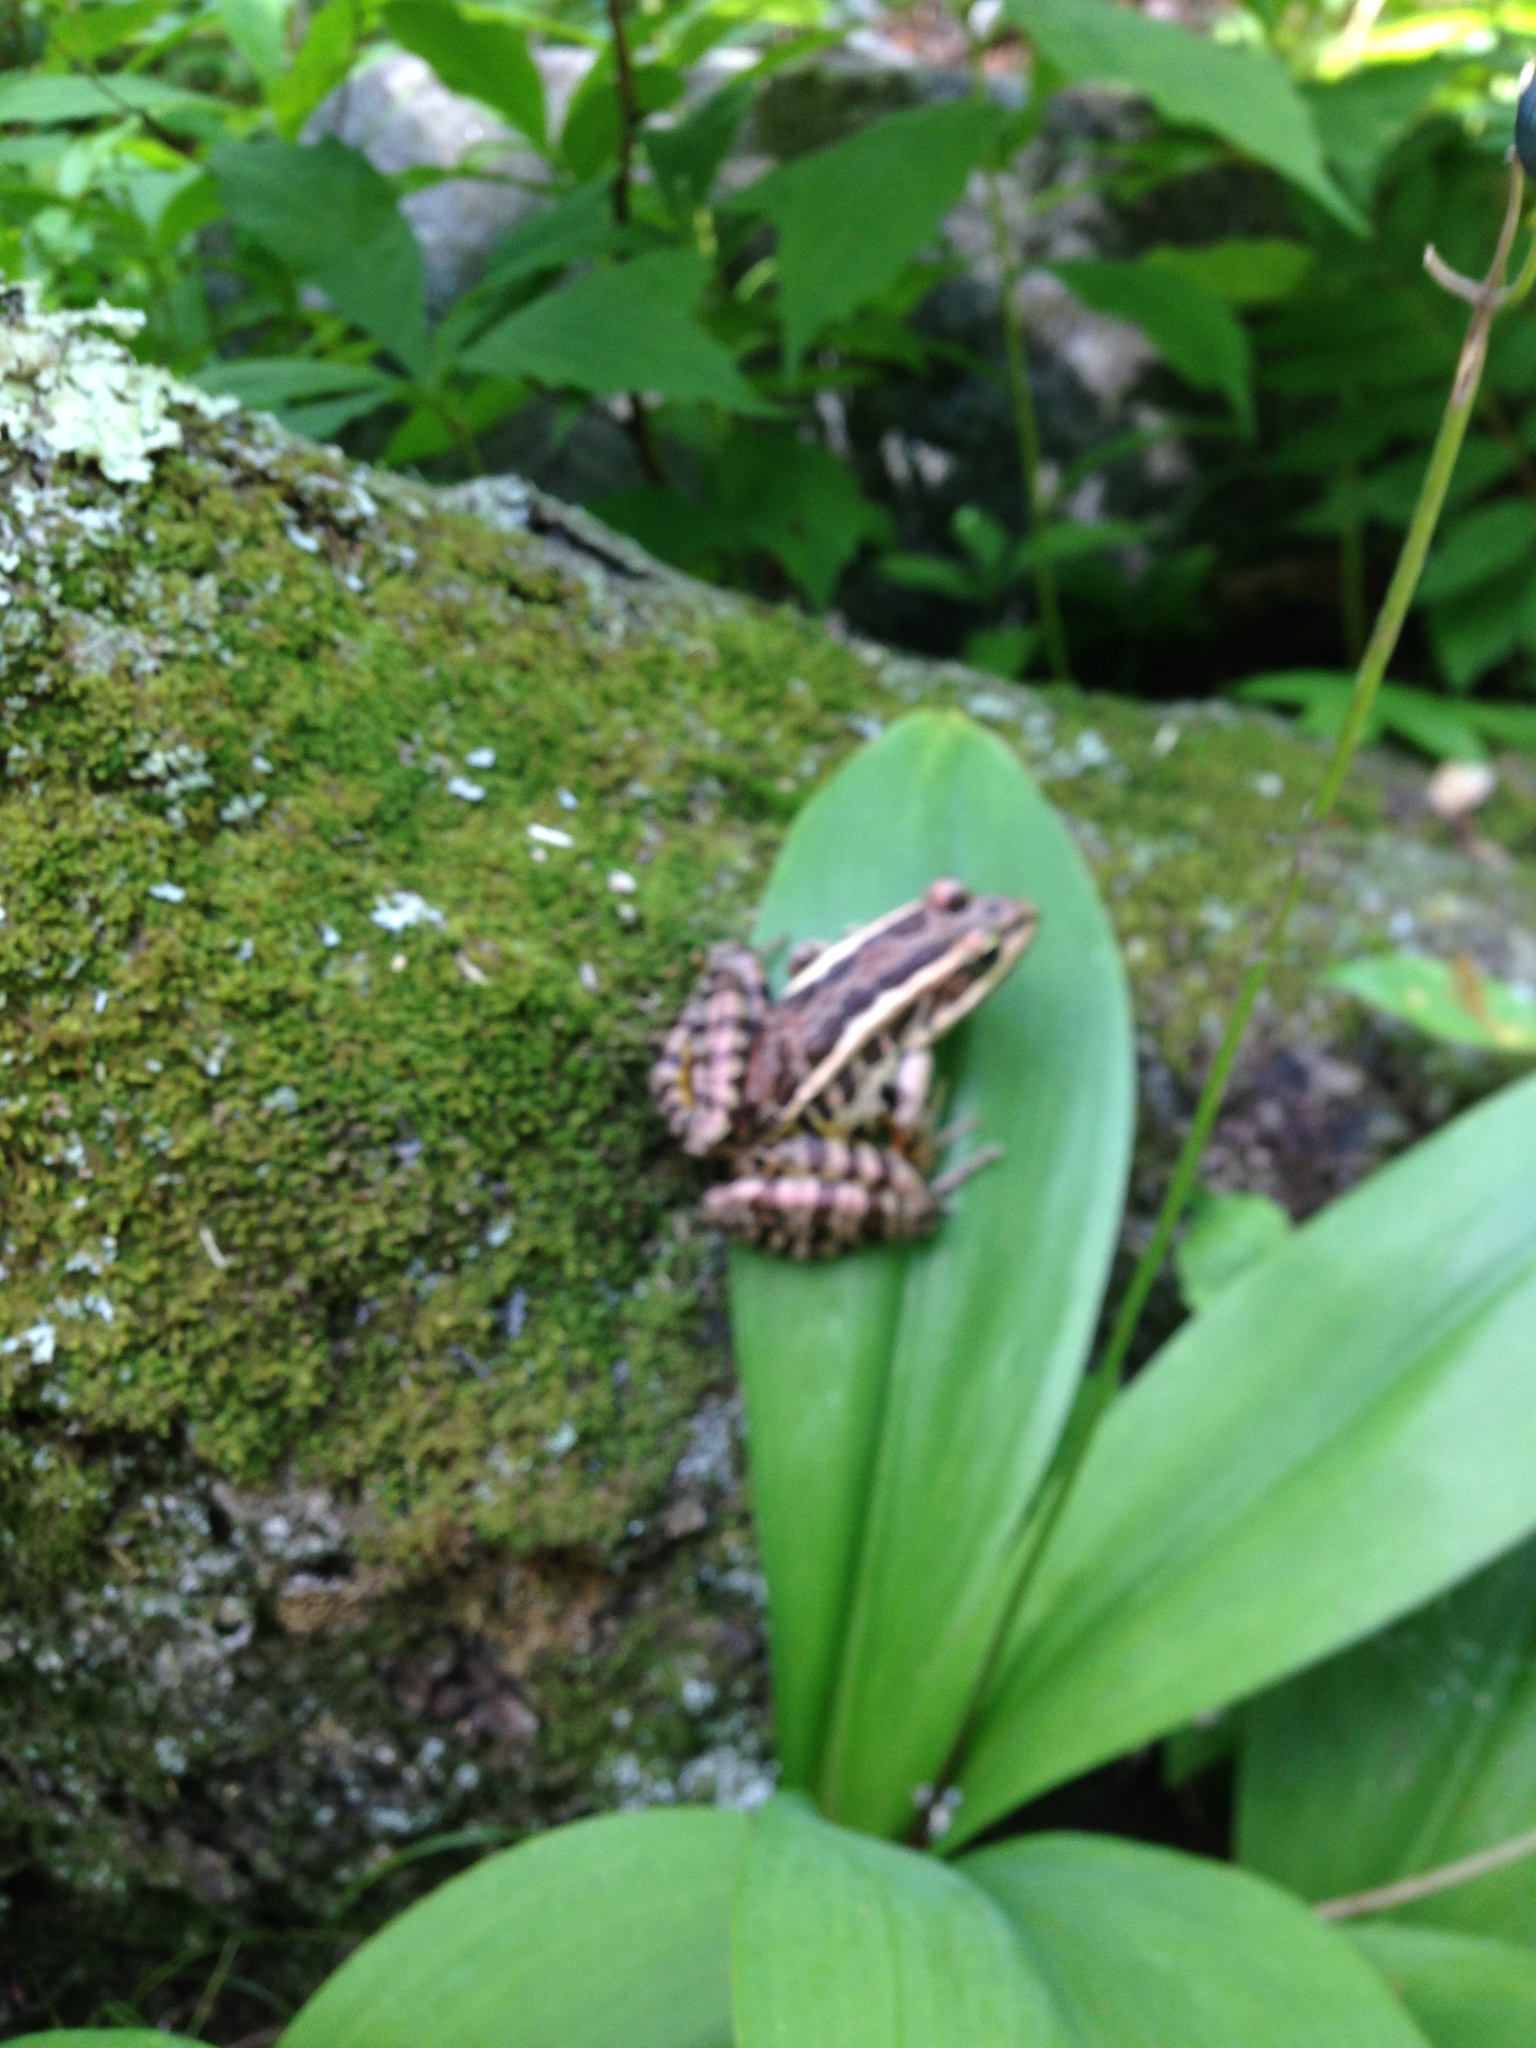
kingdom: Animalia
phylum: Chordata
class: Amphibia
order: Anura
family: Ranidae
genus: Lithobates
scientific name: Lithobates palustris
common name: Pickerel frog
